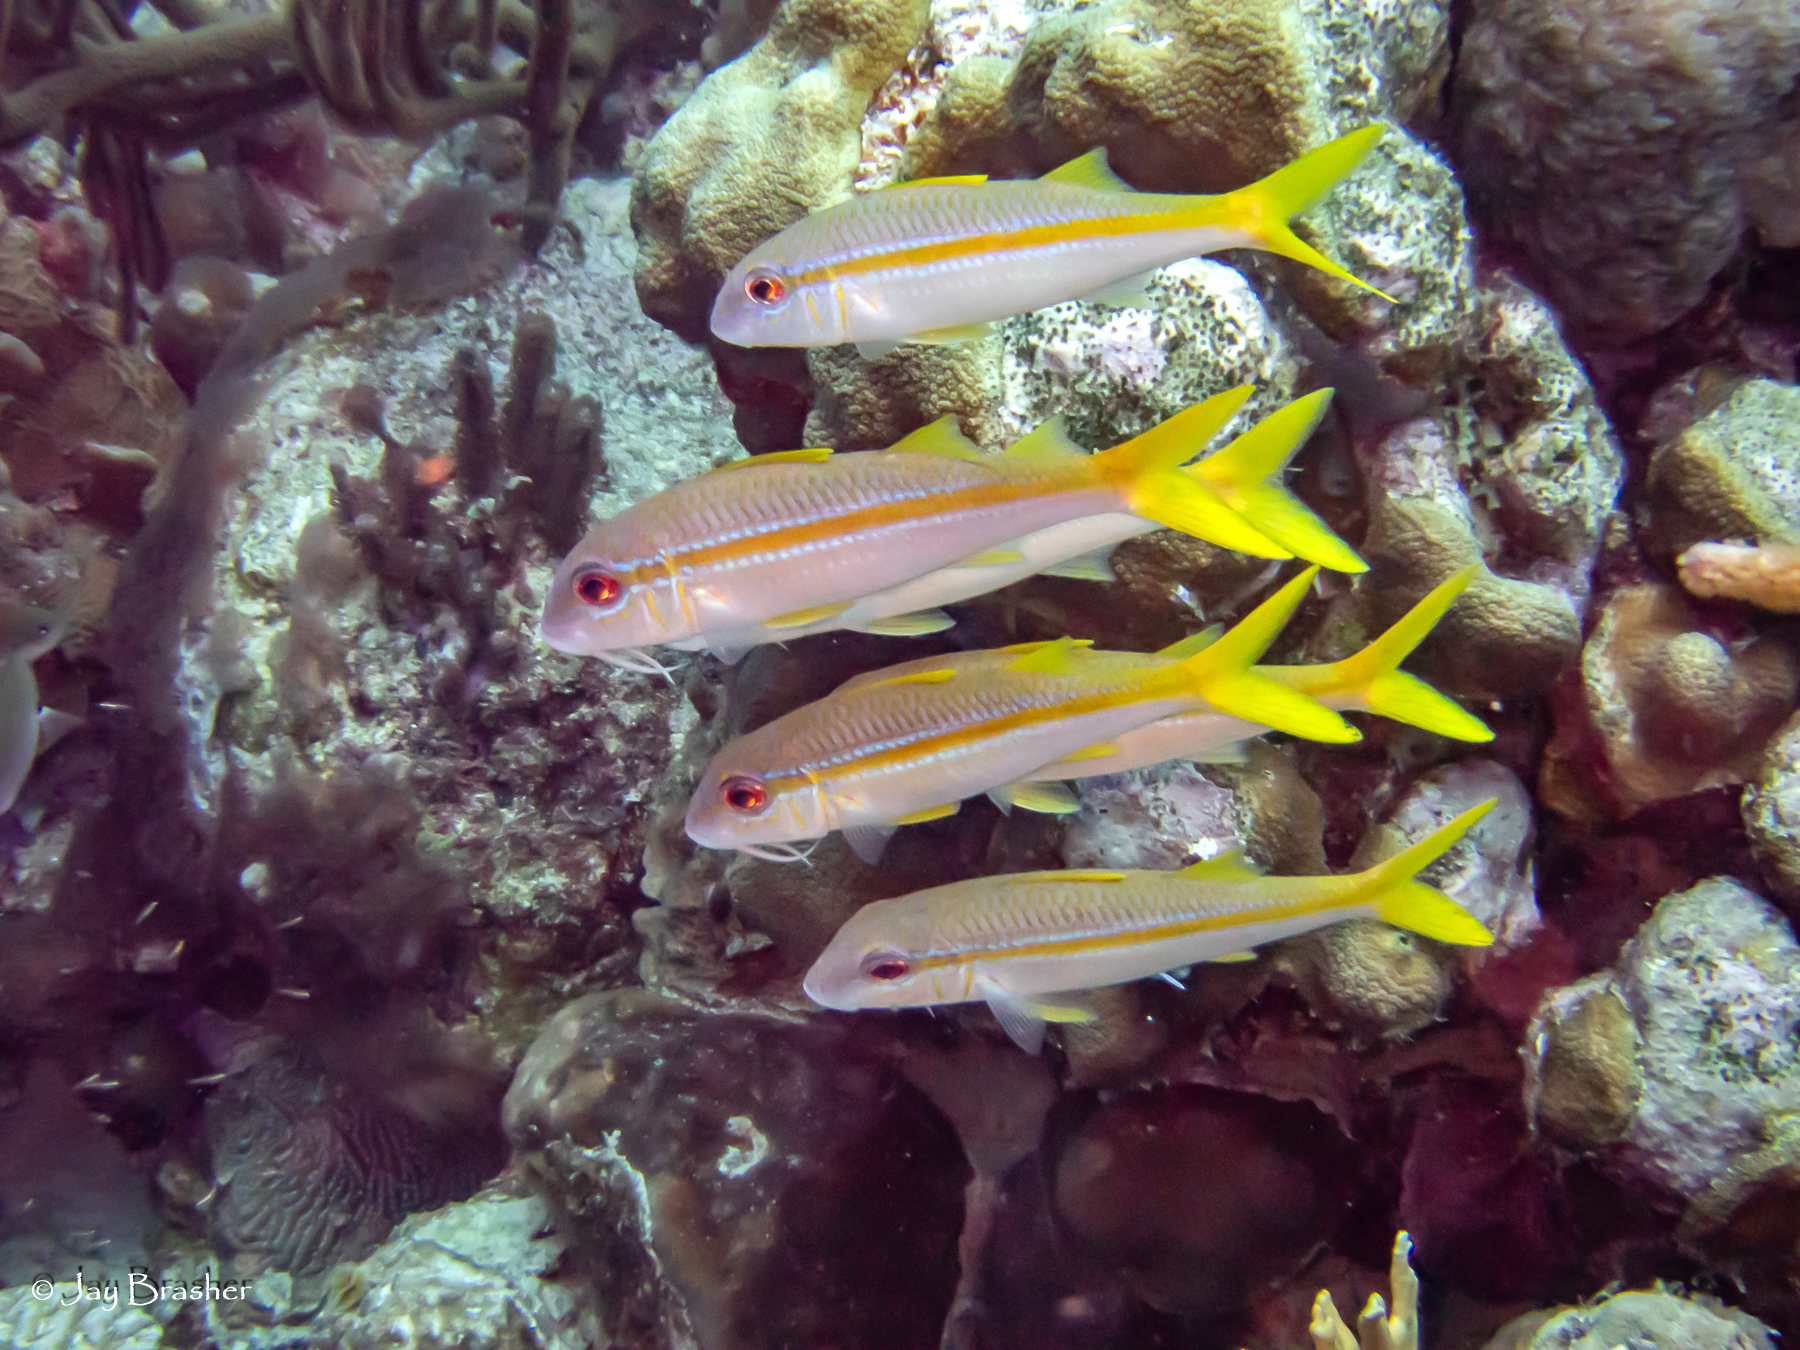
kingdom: Animalia
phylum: Chordata
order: Perciformes
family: Mullidae
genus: Mulloidichthys
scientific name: Mulloidichthys martinicus
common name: Yellow goatfish
